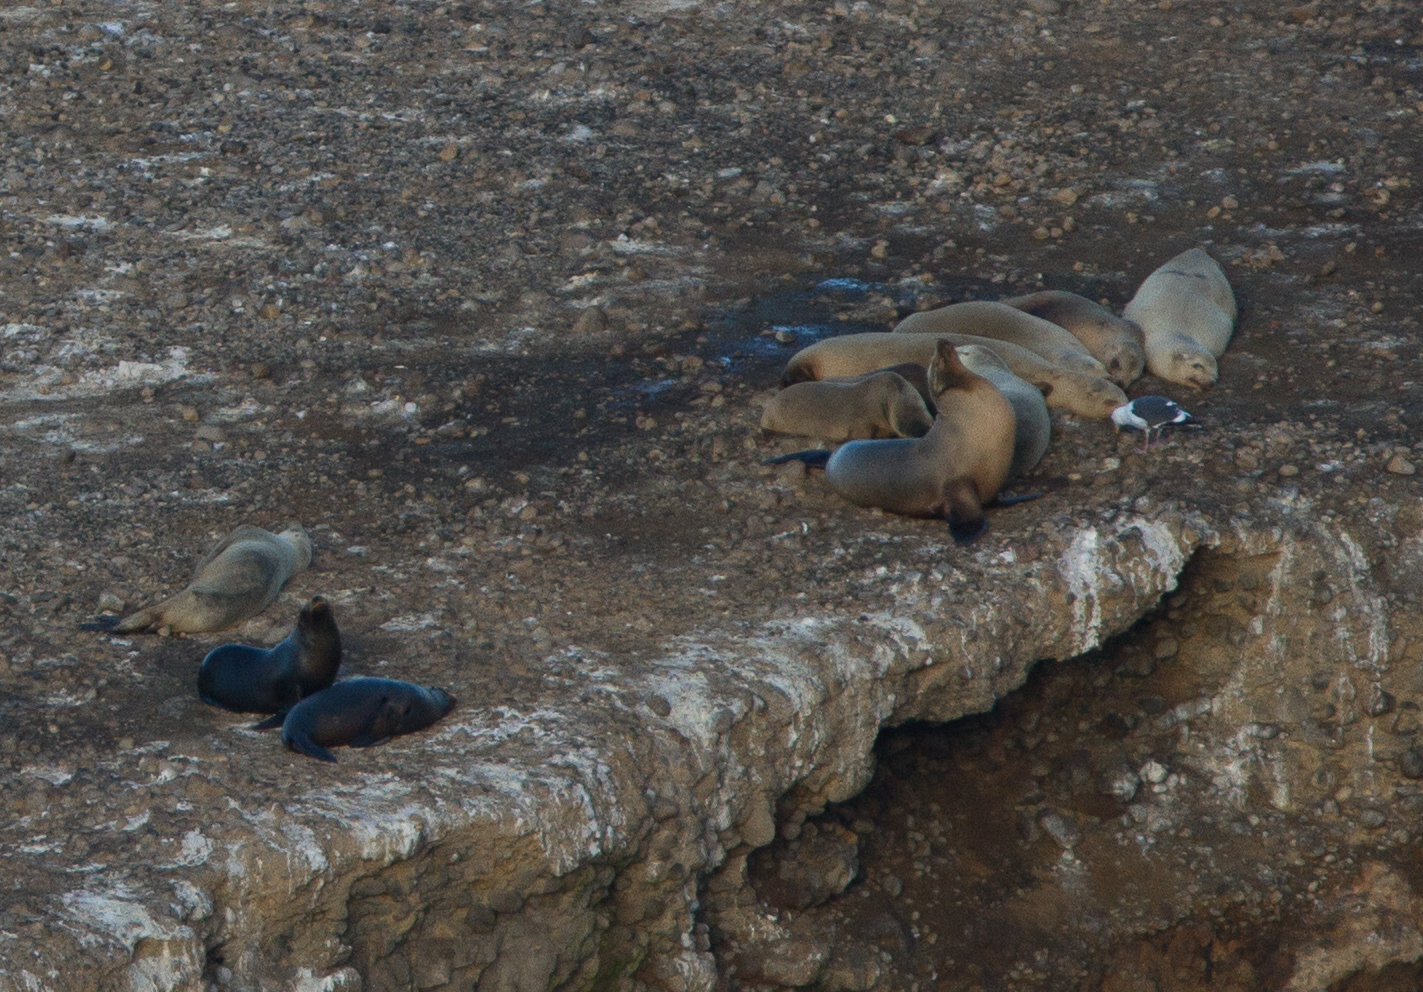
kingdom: Animalia
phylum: Chordata
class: Mammalia
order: Carnivora
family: Otariidae
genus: Zalophus
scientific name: Zalophus californianus
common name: California sea lion
